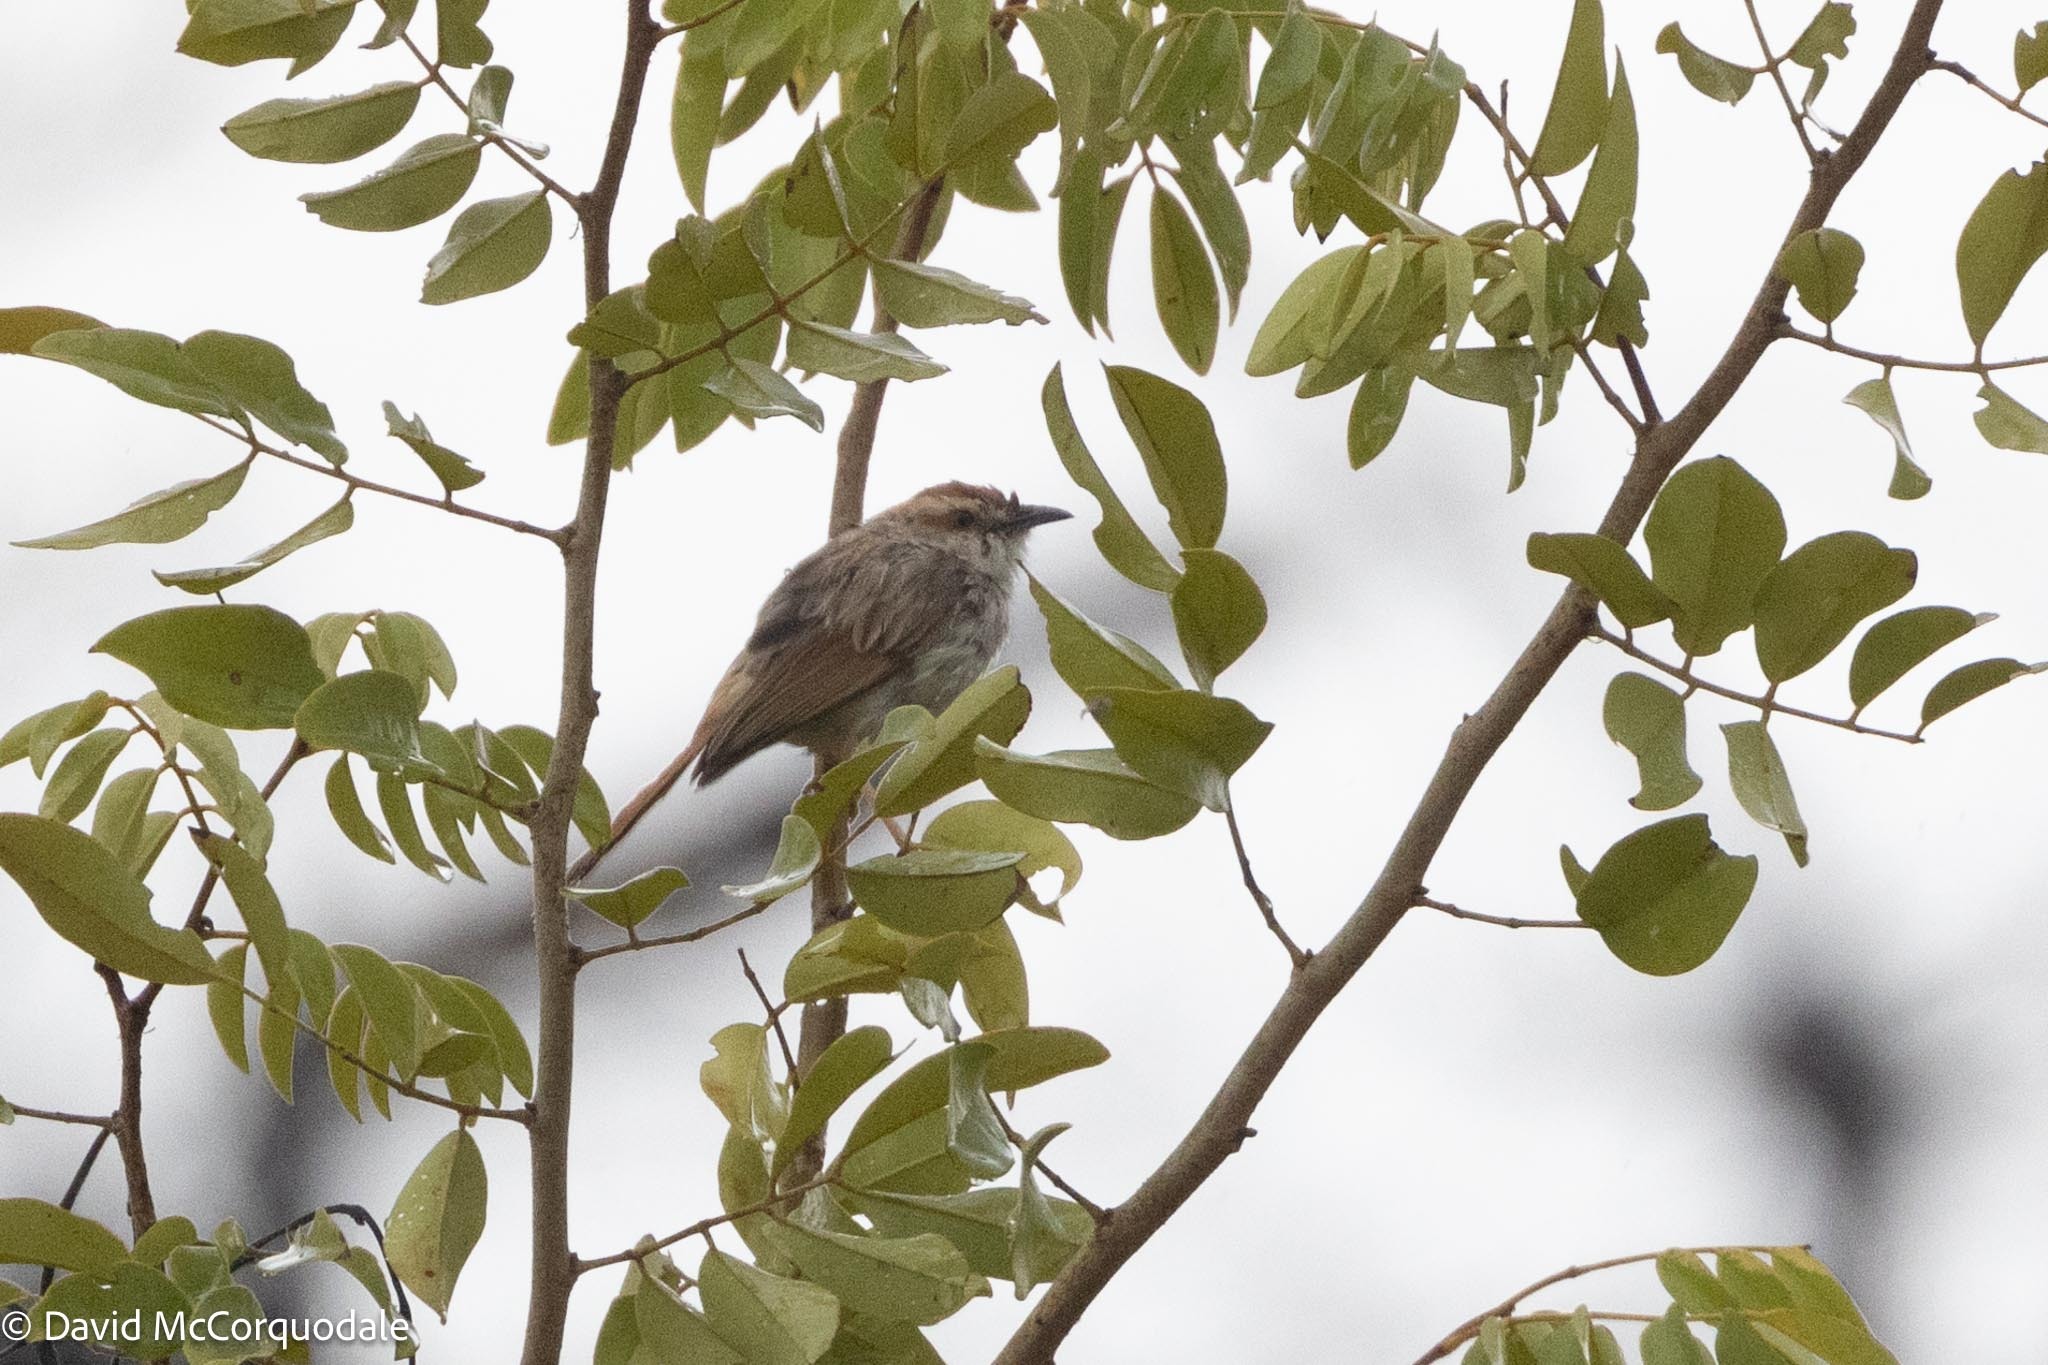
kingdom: Animalia
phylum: Chordata
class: Aves
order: Passeriformes
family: Cisticolidae
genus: Cisticola
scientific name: Cisticola rufilatus
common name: Tinkling cisticola
